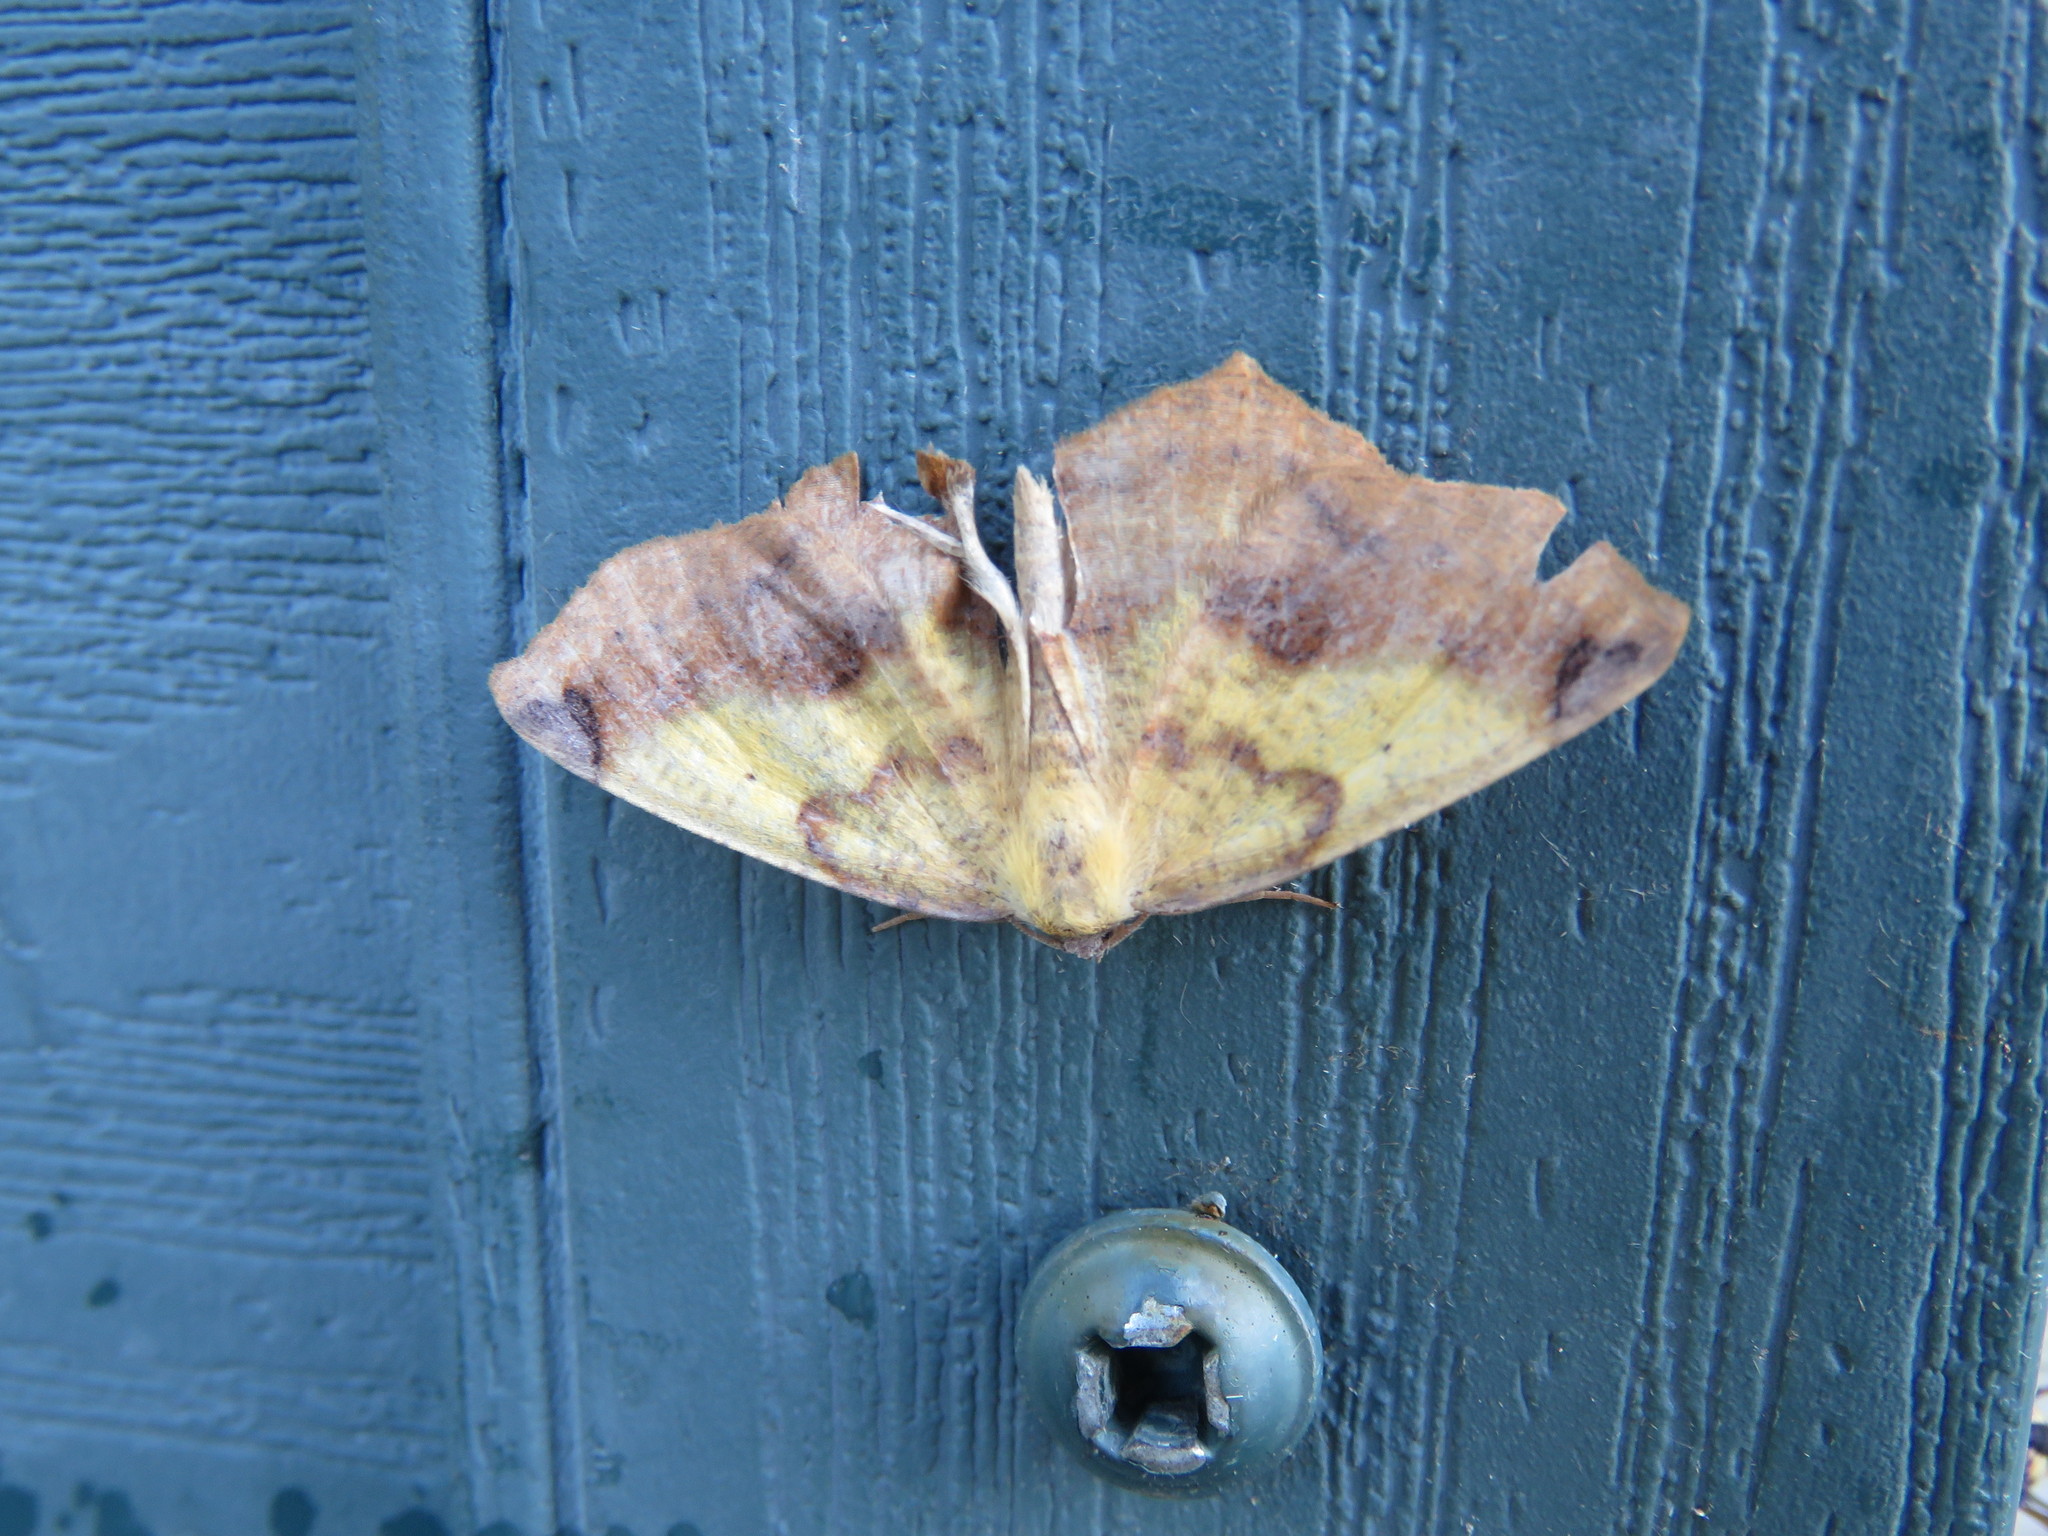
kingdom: Animalia
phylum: Arthropoda
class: Insecta
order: Lepidoptera
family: Geometridae
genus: Antepione
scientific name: Antepione thisoaria
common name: Variable antipione
